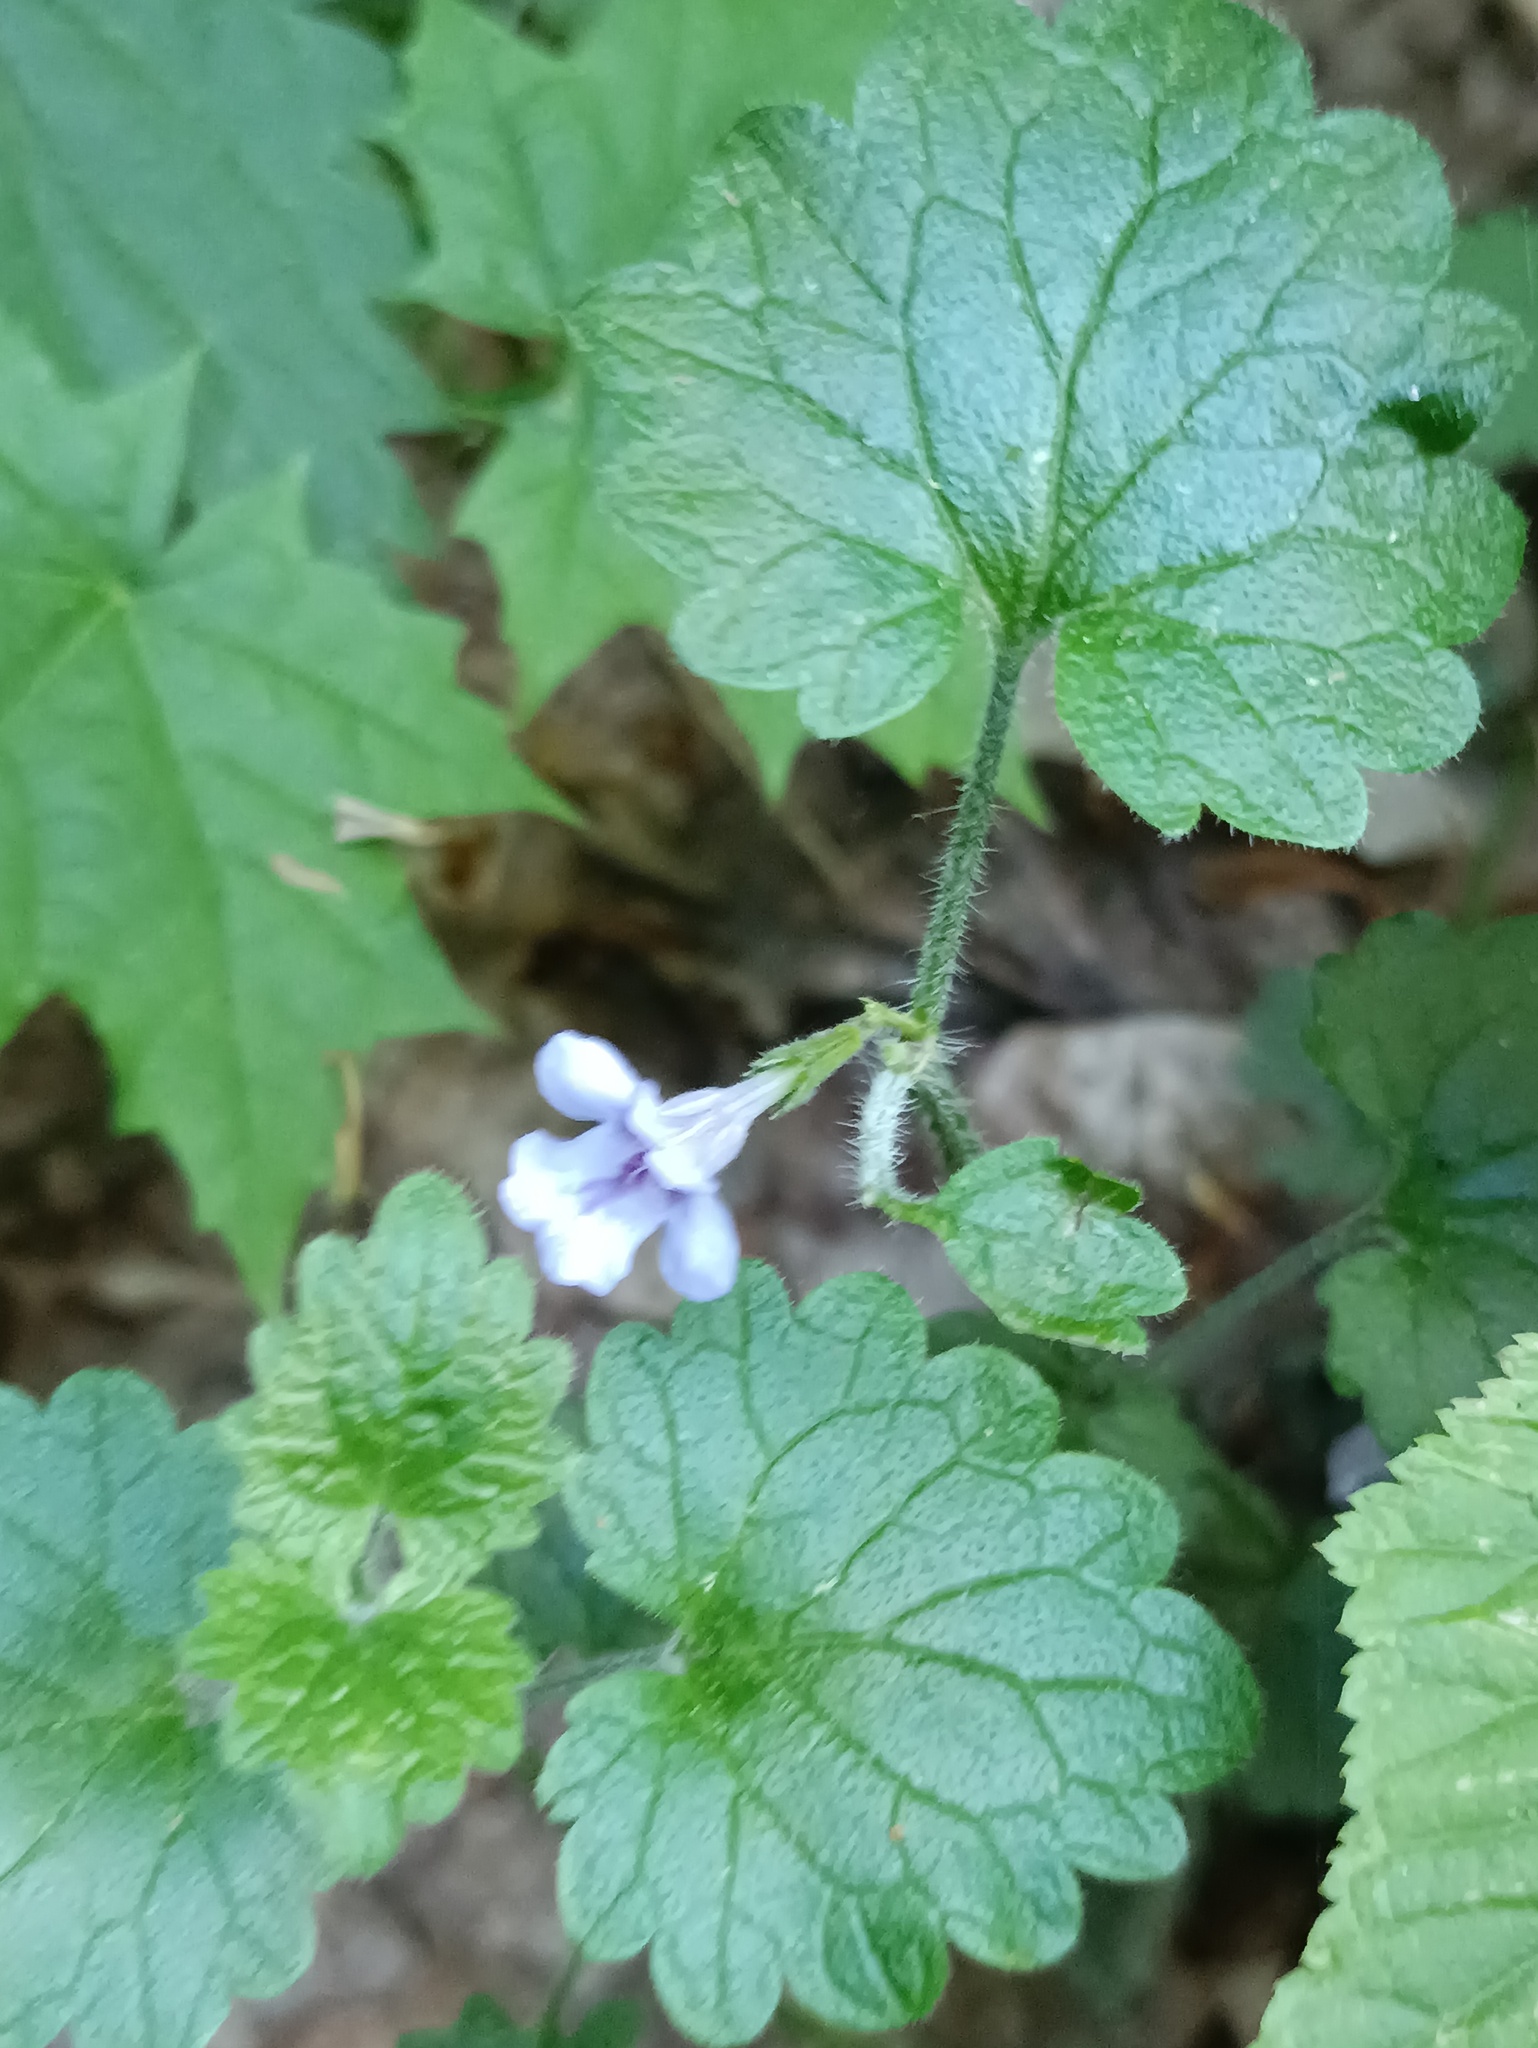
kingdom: Plantae
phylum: Tracheophyta
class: Magnoliopsida
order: Lamiales
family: Lamiaceae
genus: Glechoma
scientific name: Glechoma hederacea
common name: Ground ivy
